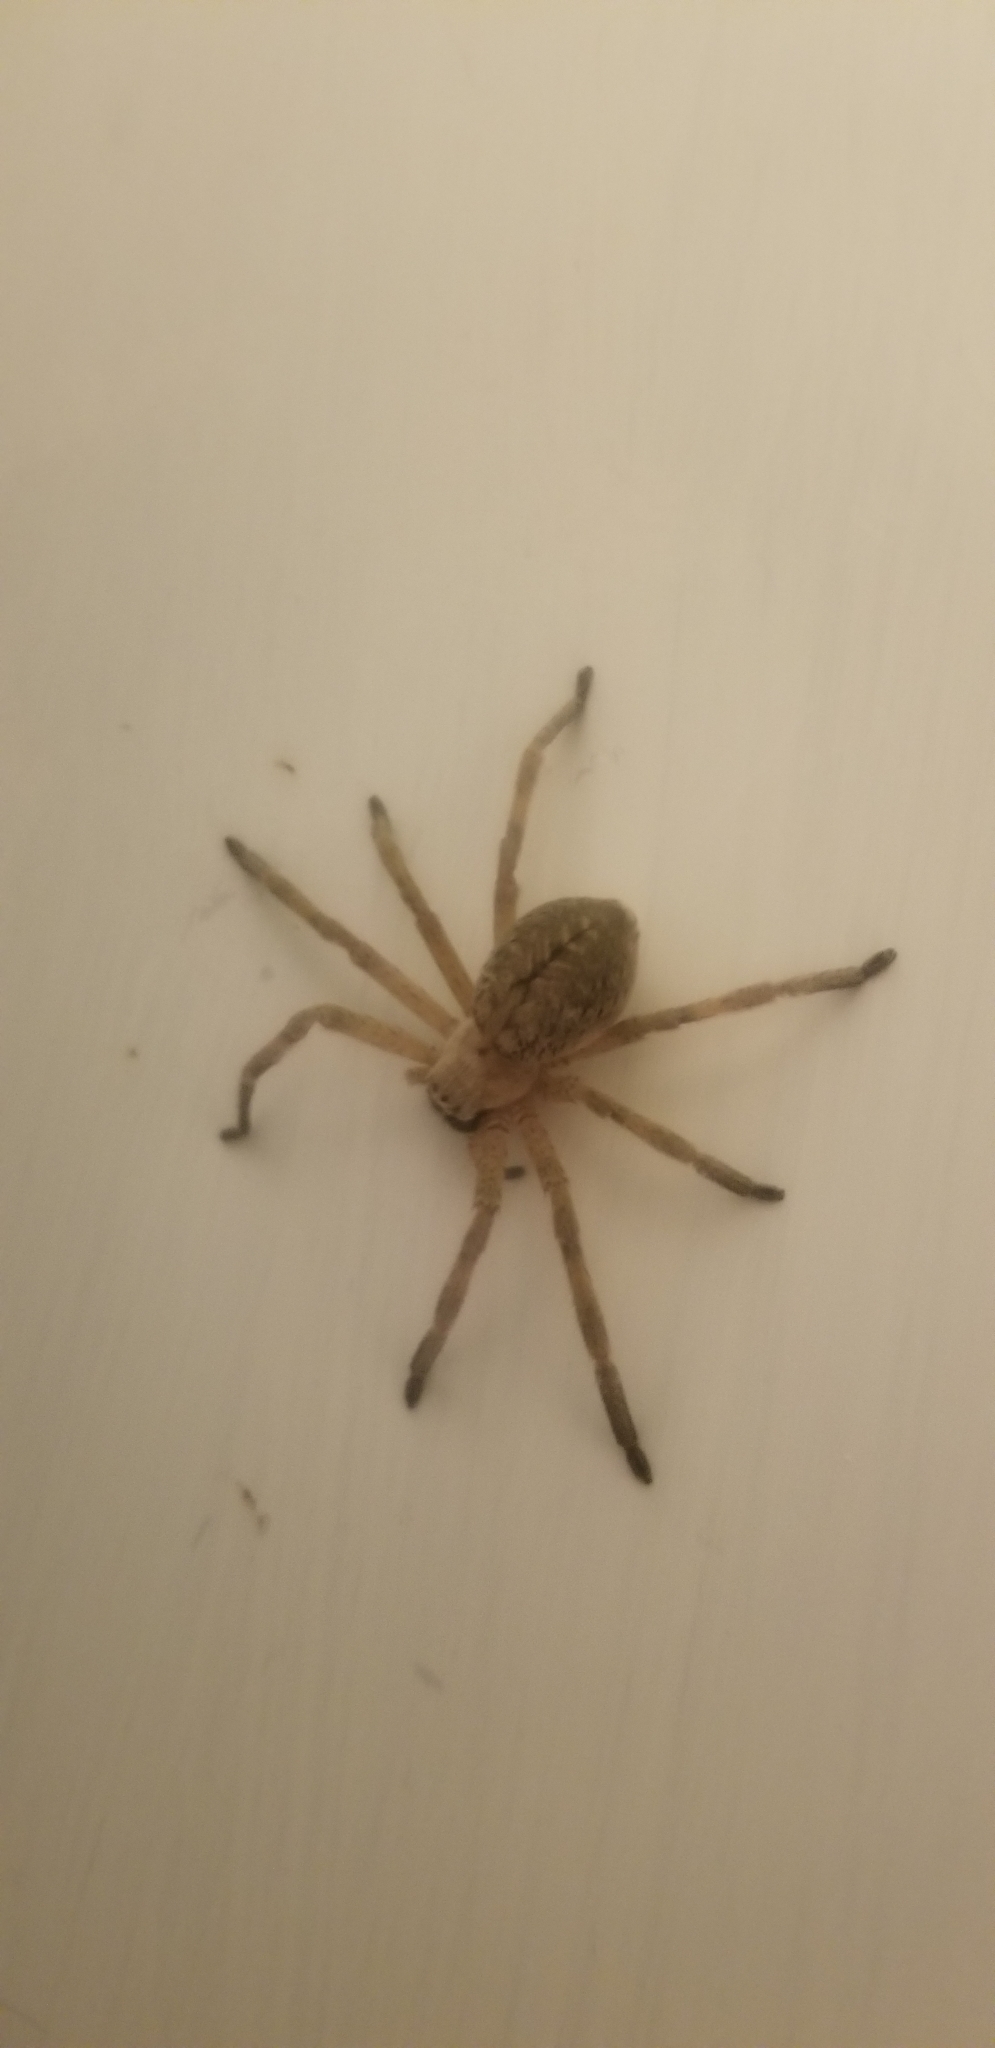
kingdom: Animalia
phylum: Arthropoda
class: Arachnida
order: Araneae
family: Sparassidae
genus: Olios
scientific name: Olios giganteus
